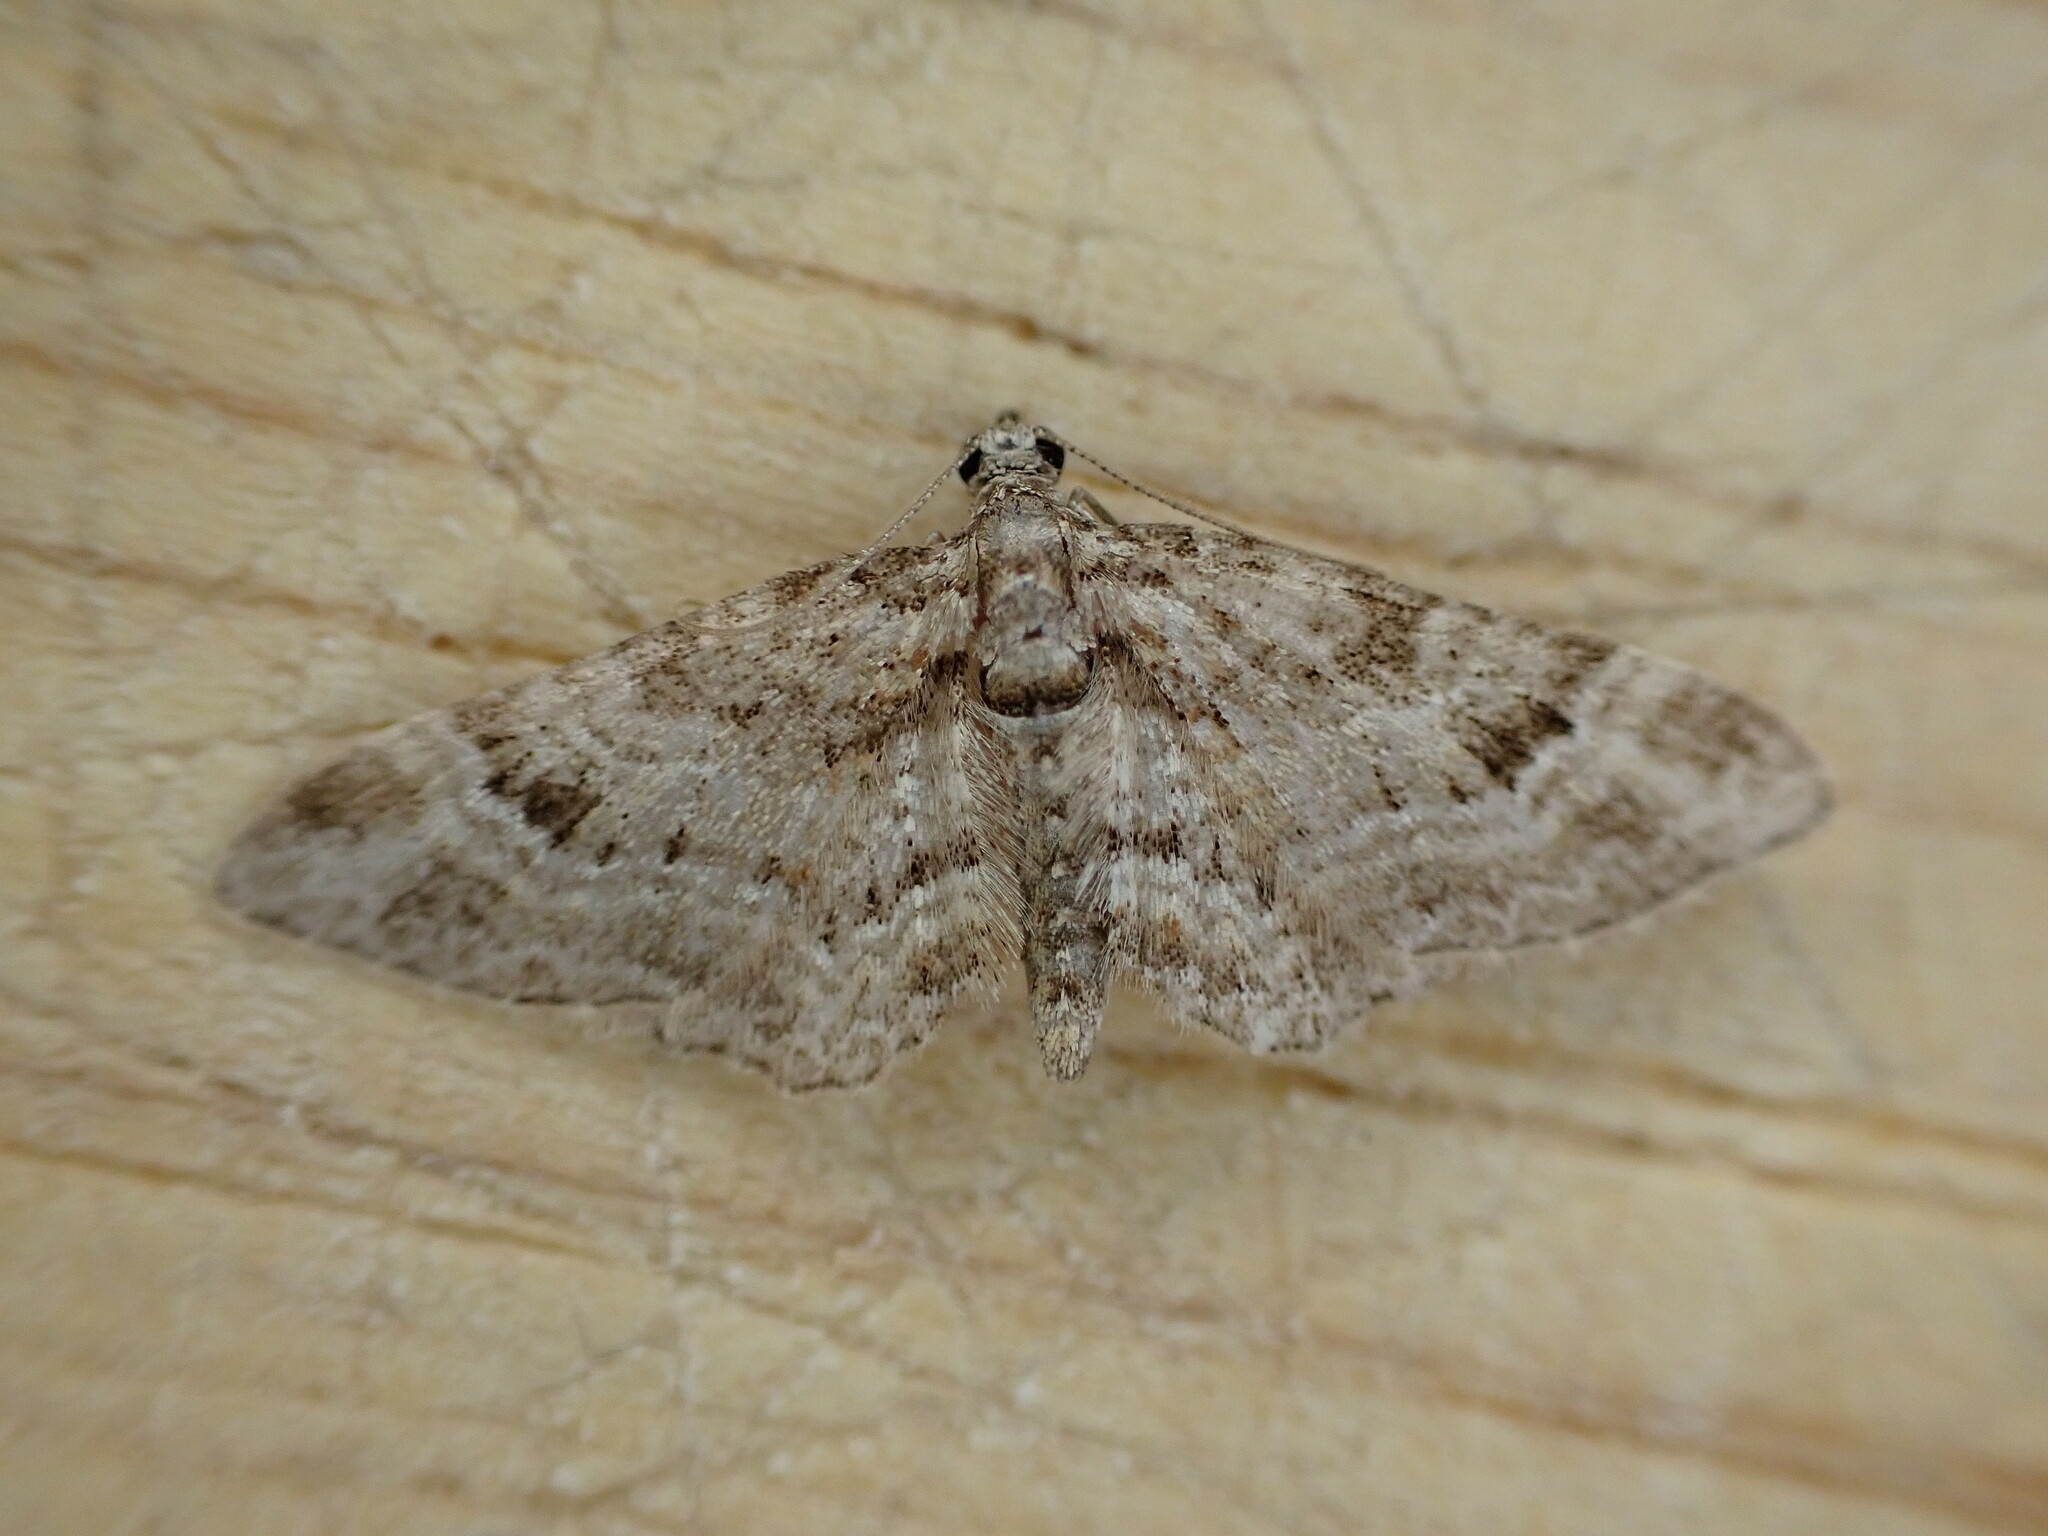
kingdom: Animalia
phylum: Arthropoda
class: Insecta
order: Lepidoptera
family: Geometridae
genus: Gymnoscelis
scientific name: Gymnoscelis rufifasciata
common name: Double-striped pug
